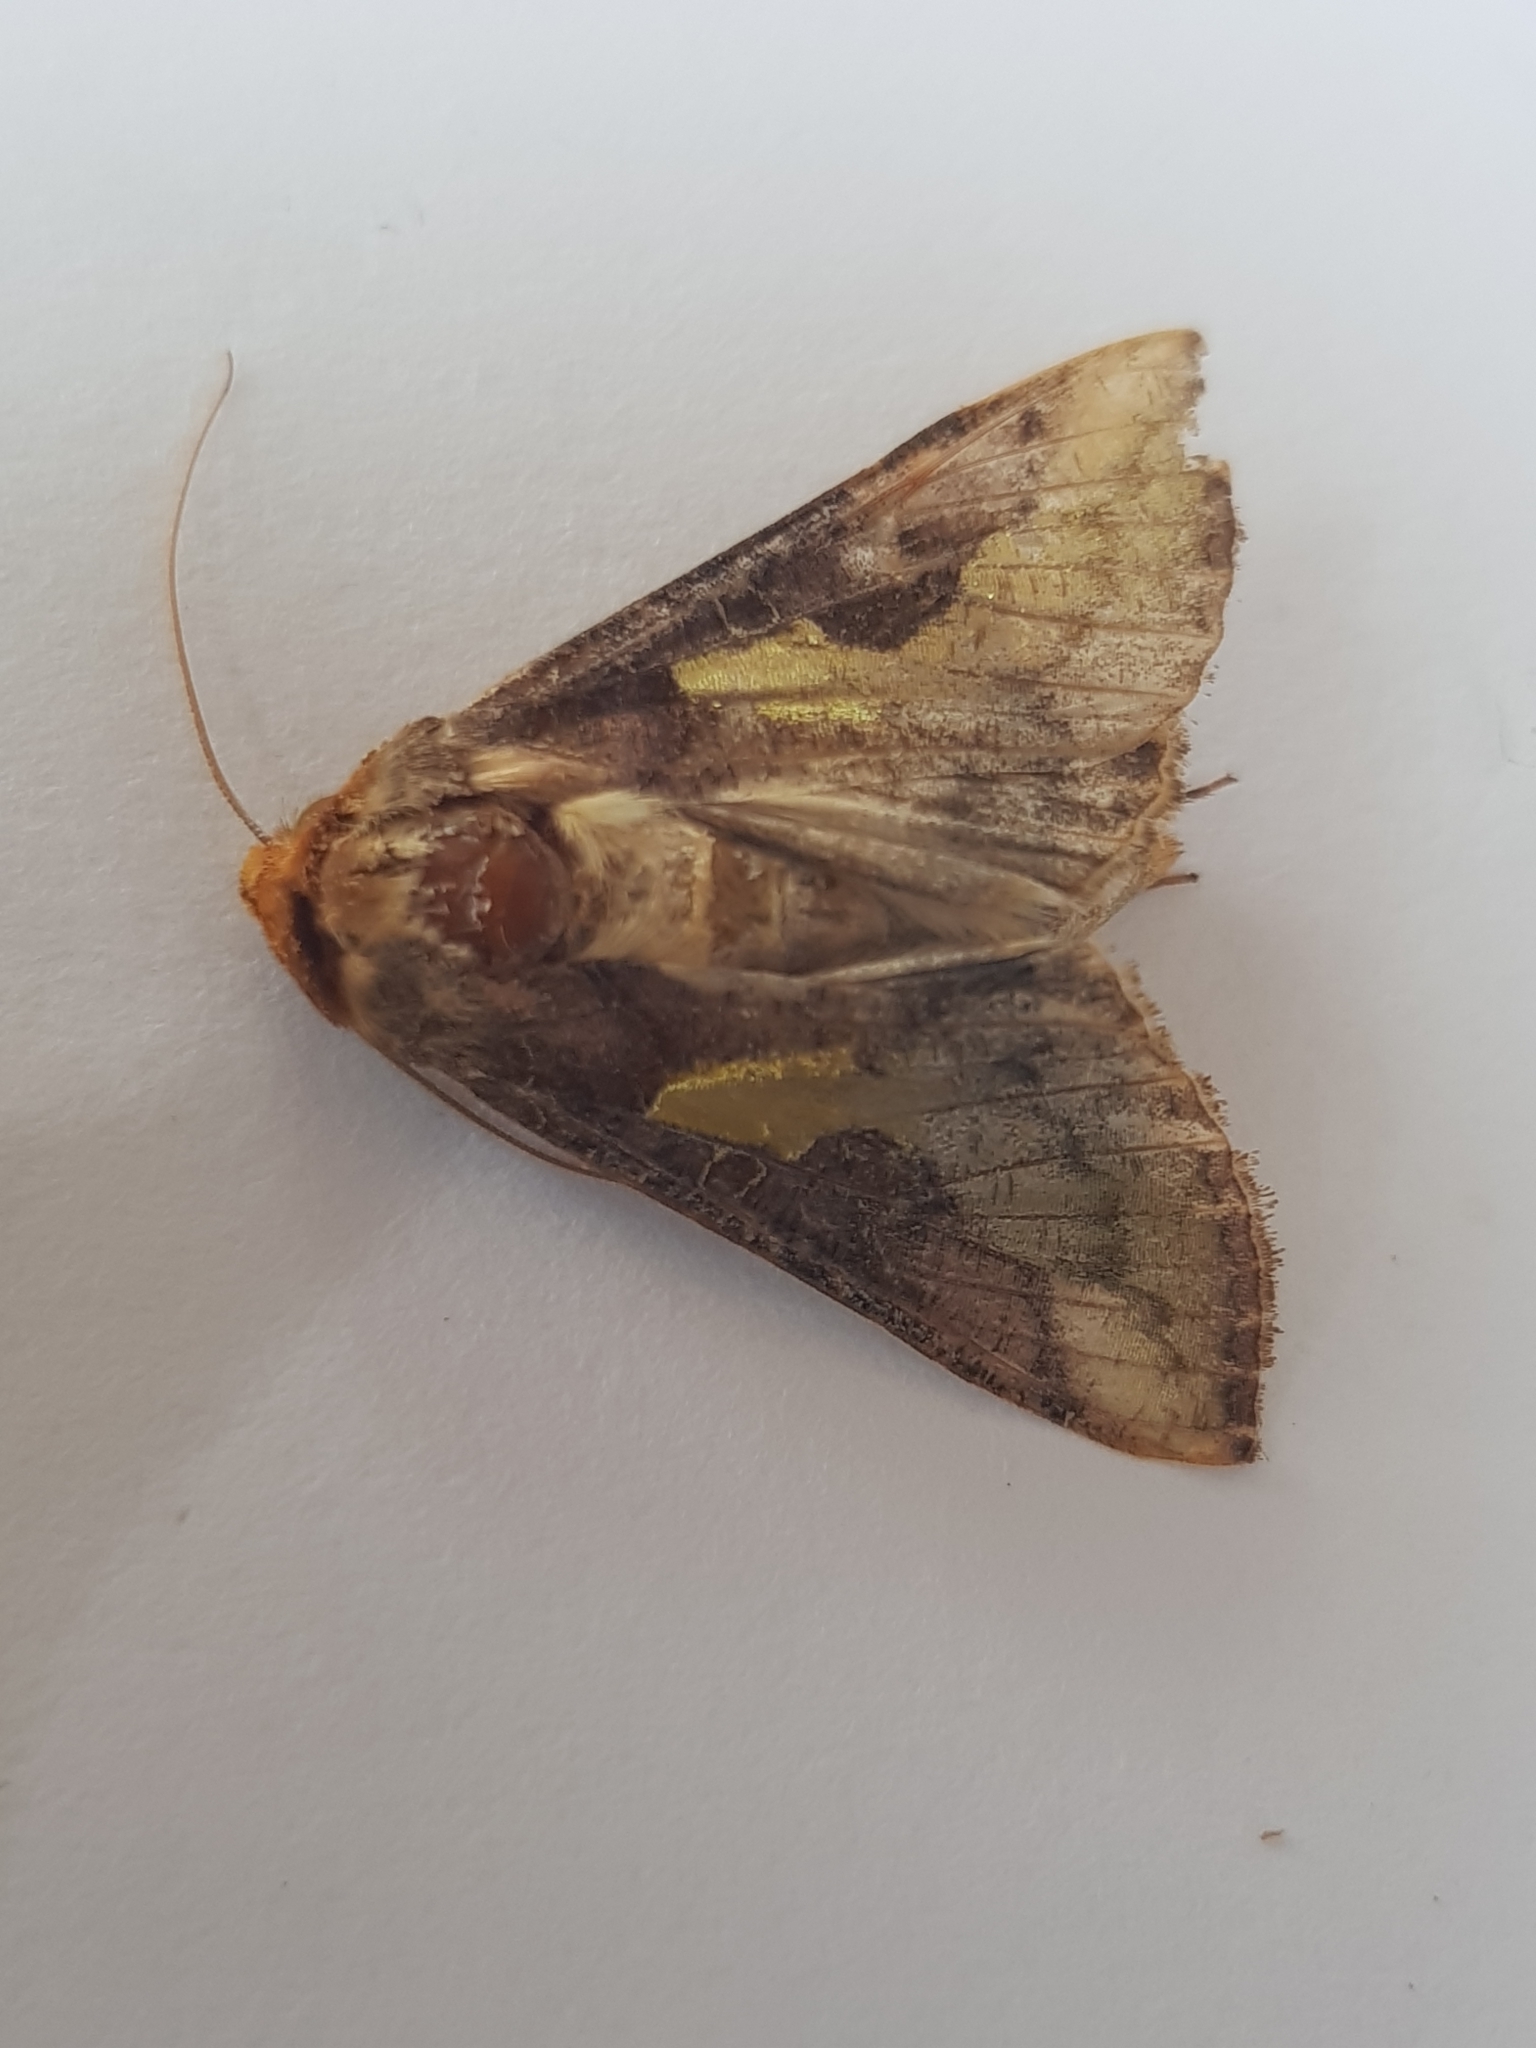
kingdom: Animalia
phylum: Arthropoda
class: Insecta
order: Lepidoptera
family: Noctuidae
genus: Thysanoplusia
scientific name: Thysanoplusia orichalcea
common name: Slender burnished brass, golden plusia
